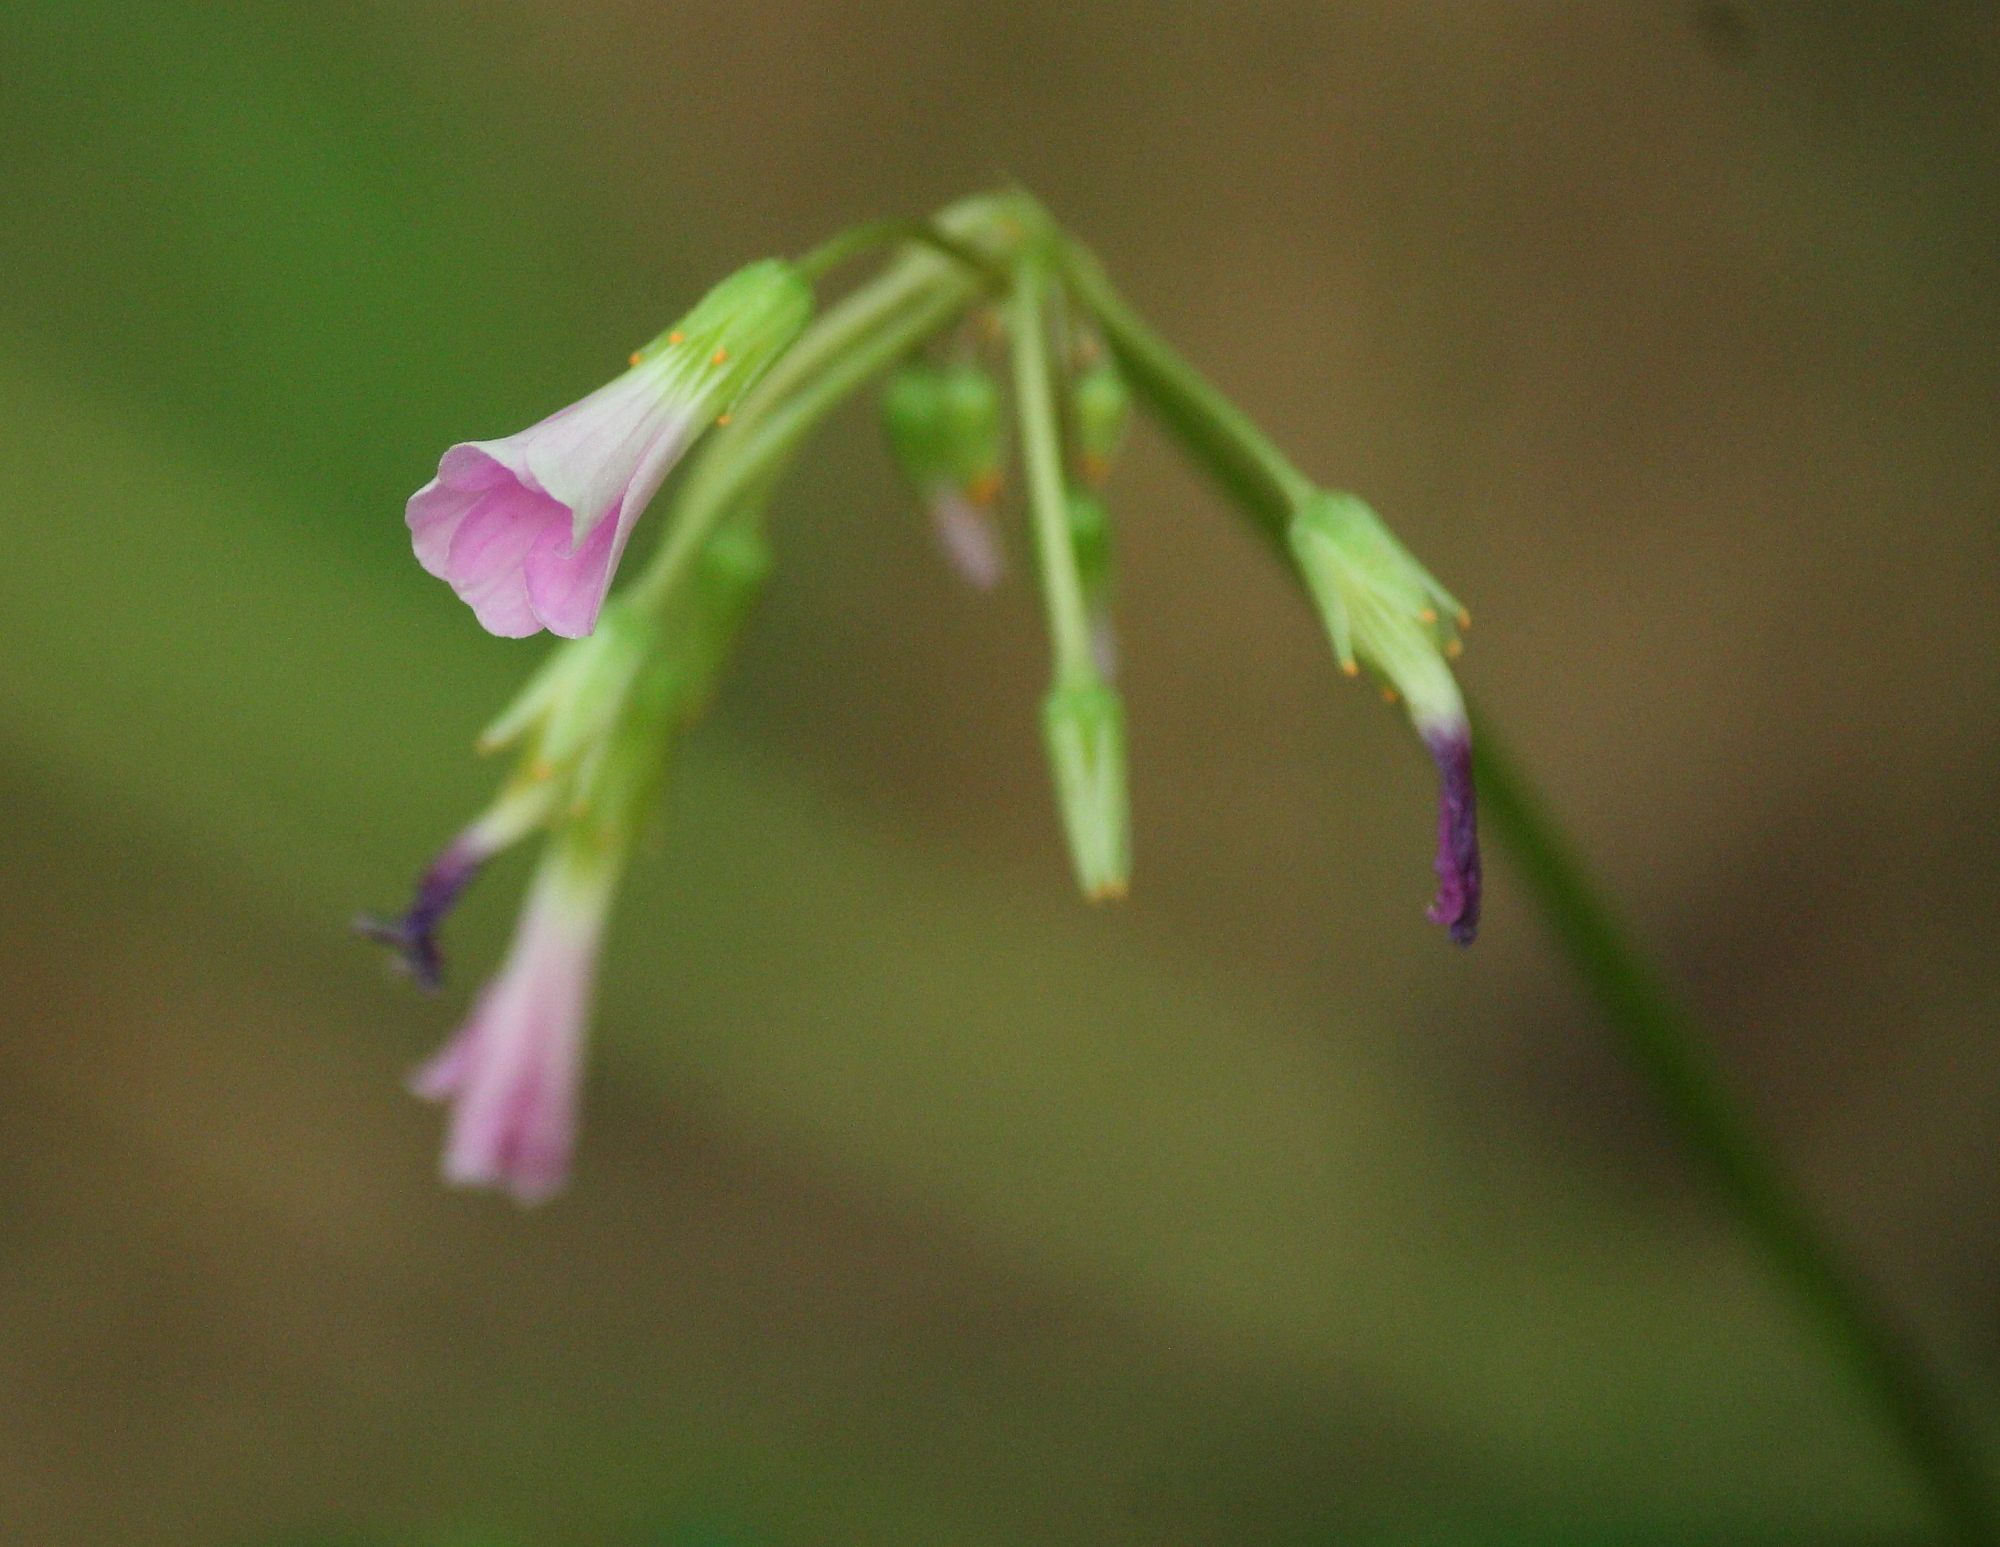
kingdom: Plantae
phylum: Tracheophyta
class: Magnoliopsida
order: Oxalidales
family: Oxalidaceae
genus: Oxalis
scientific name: Oxalis violacea
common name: Violet wood-sorrel
